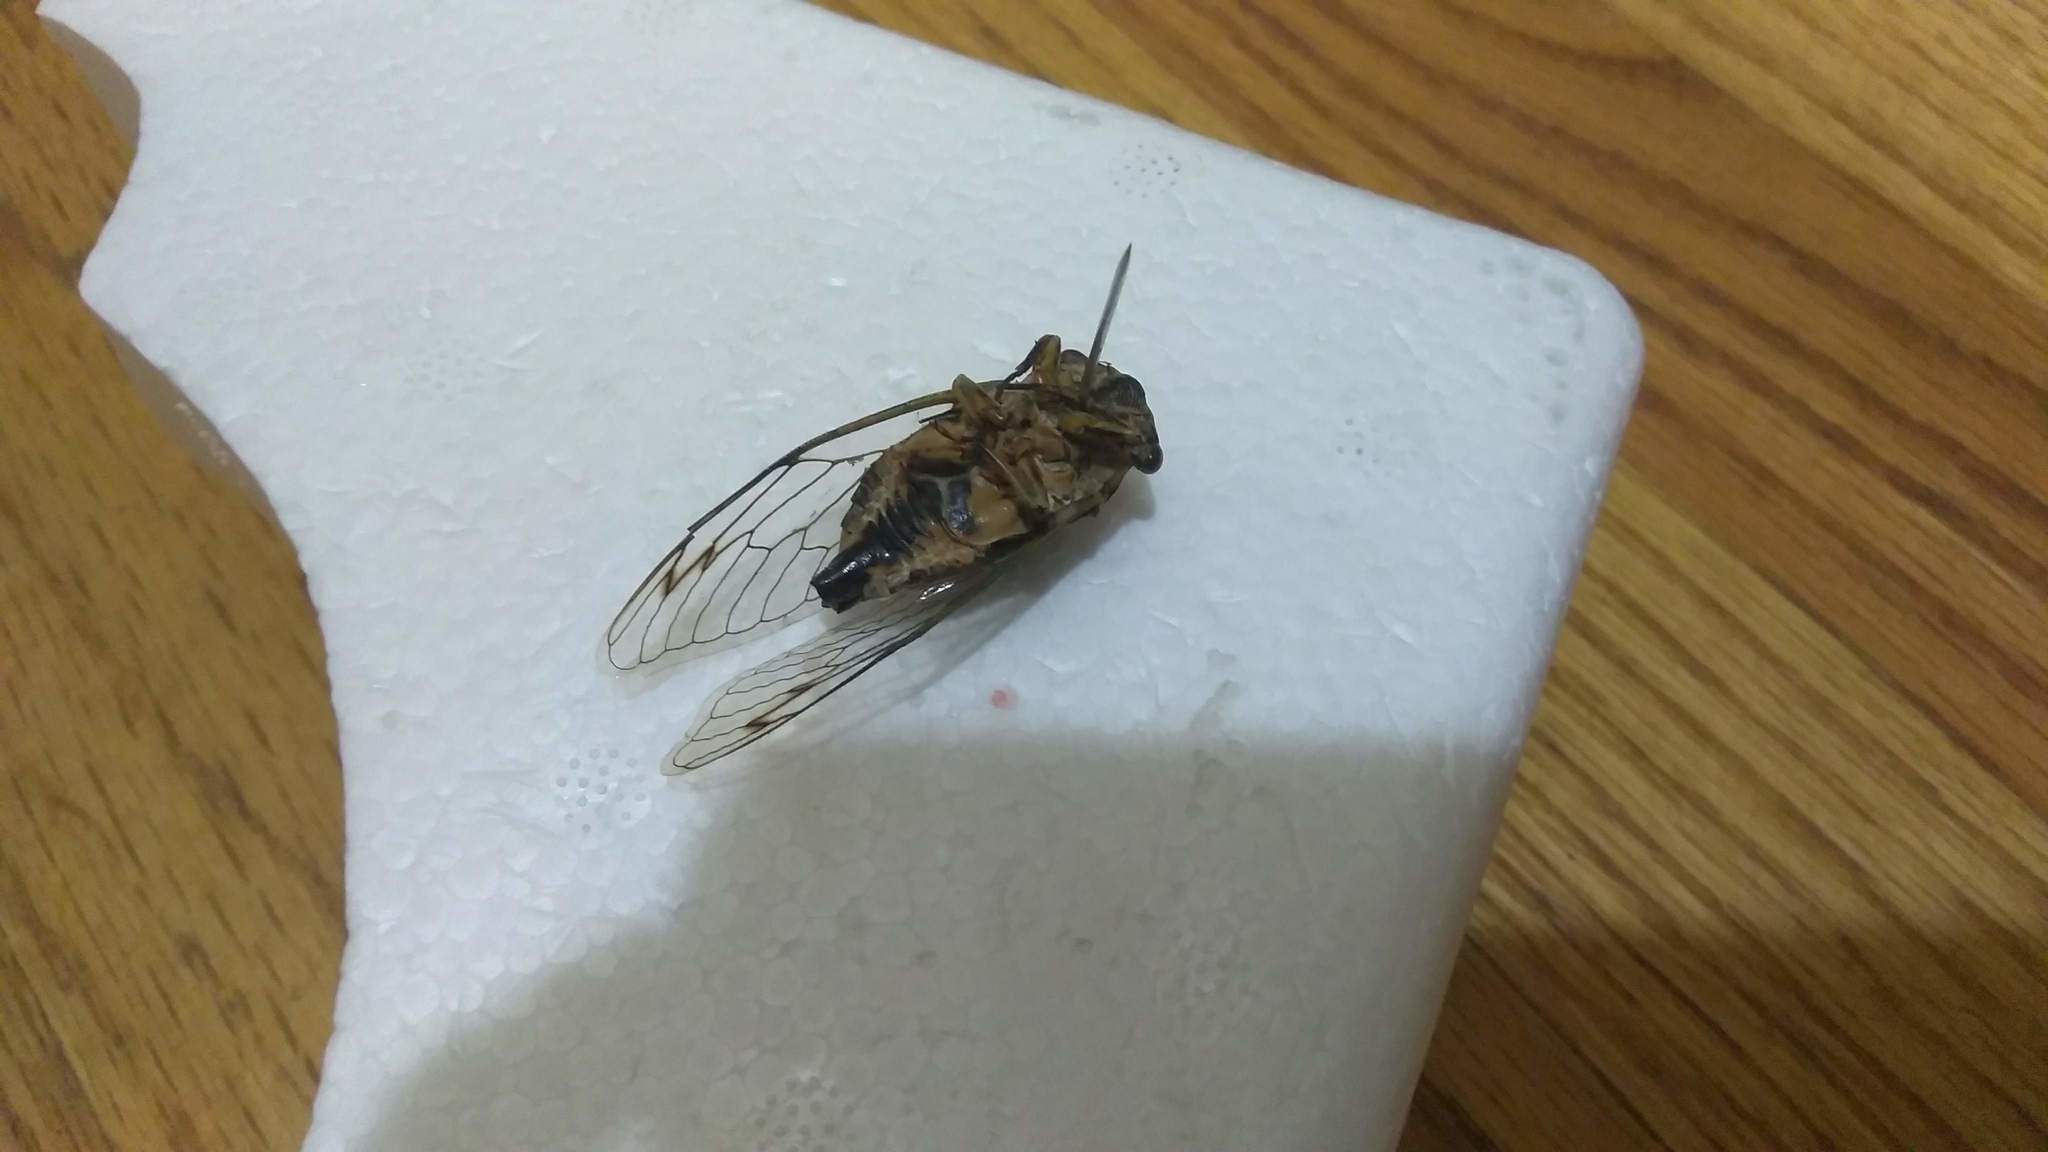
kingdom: Animalia
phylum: Arthropoda
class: Insecta
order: Hemiptera
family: Cicadidae
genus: Neotibicen
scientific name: Neotibicen canicularis
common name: God-day cicada
